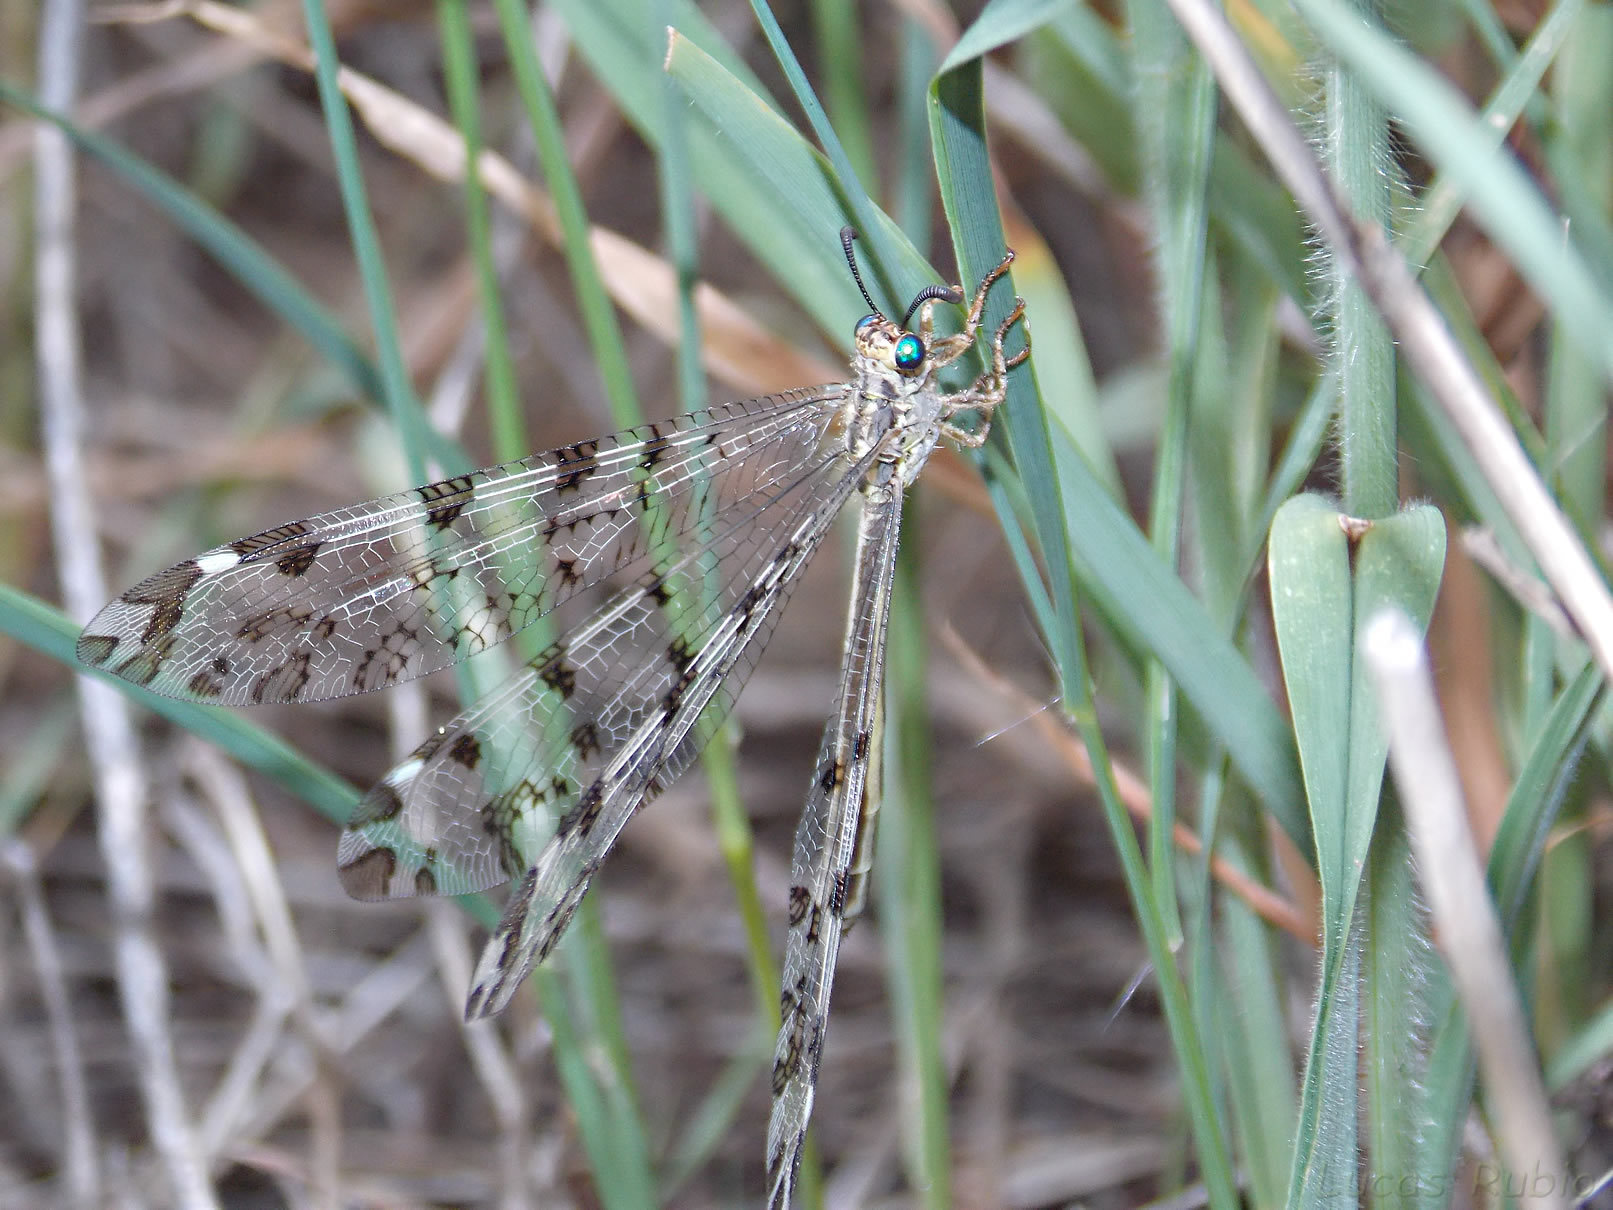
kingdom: Animalia
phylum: Arthropoda
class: Insecta
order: Neuroptera
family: Myrmeleontidae
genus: Dimares
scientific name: Dimares elegans
